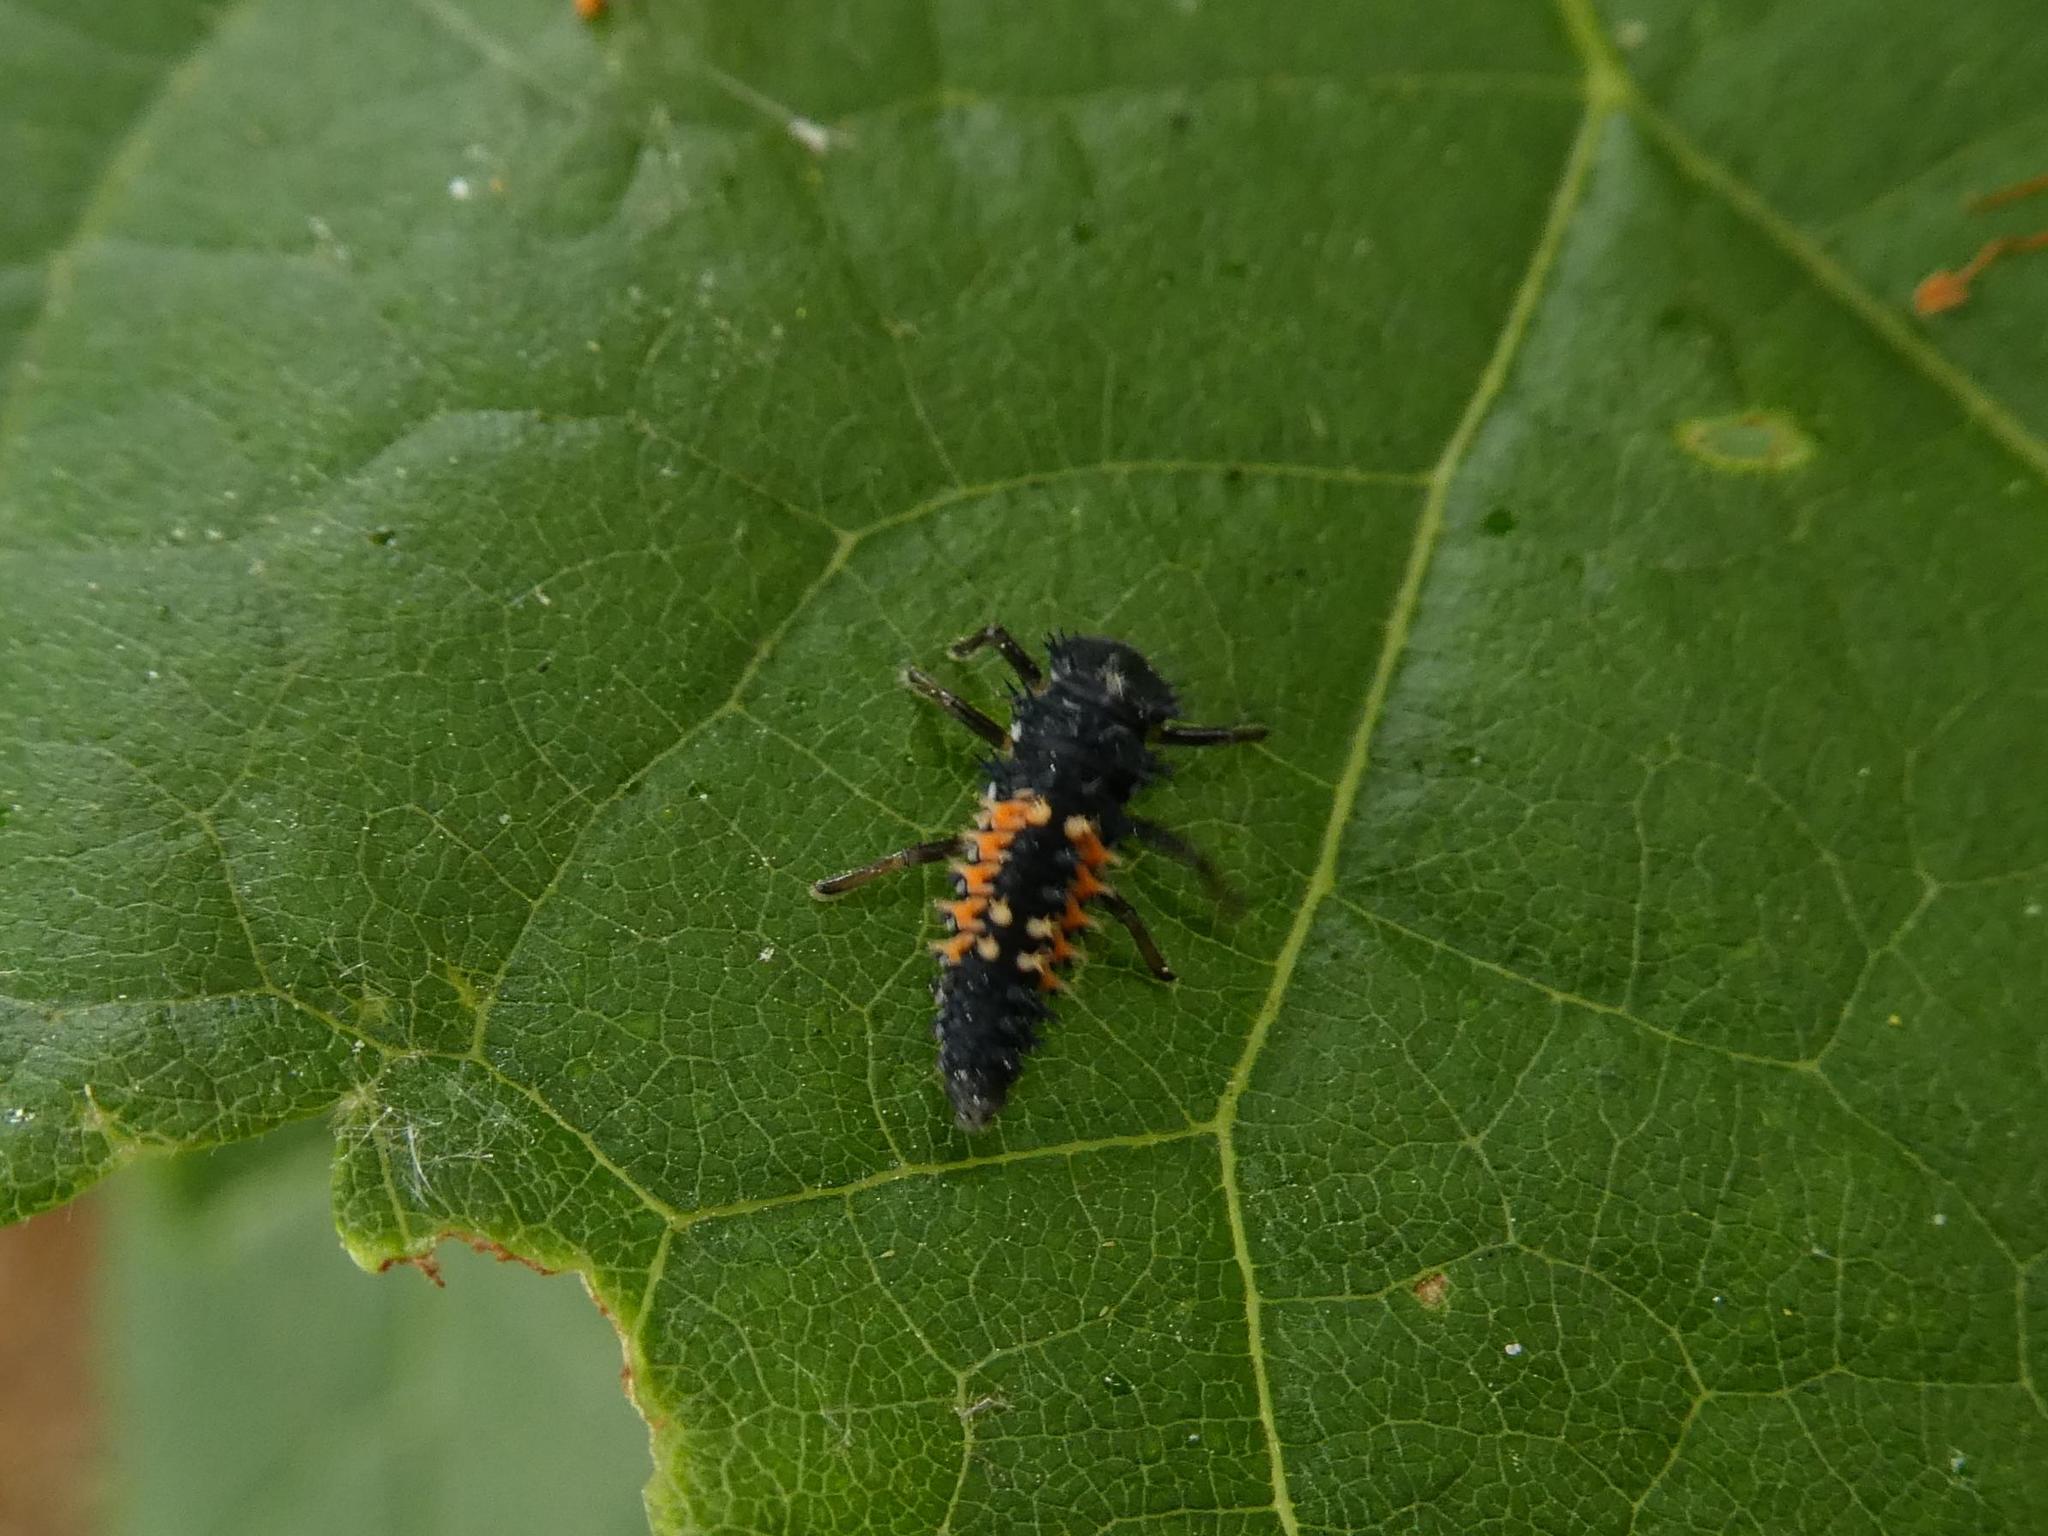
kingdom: Animalia
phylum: Arthropoda
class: Insecta
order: Coleoptera
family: Coccinellidae
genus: Harmonia
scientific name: Harmonia axyridis
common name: Harlequin ladybird
